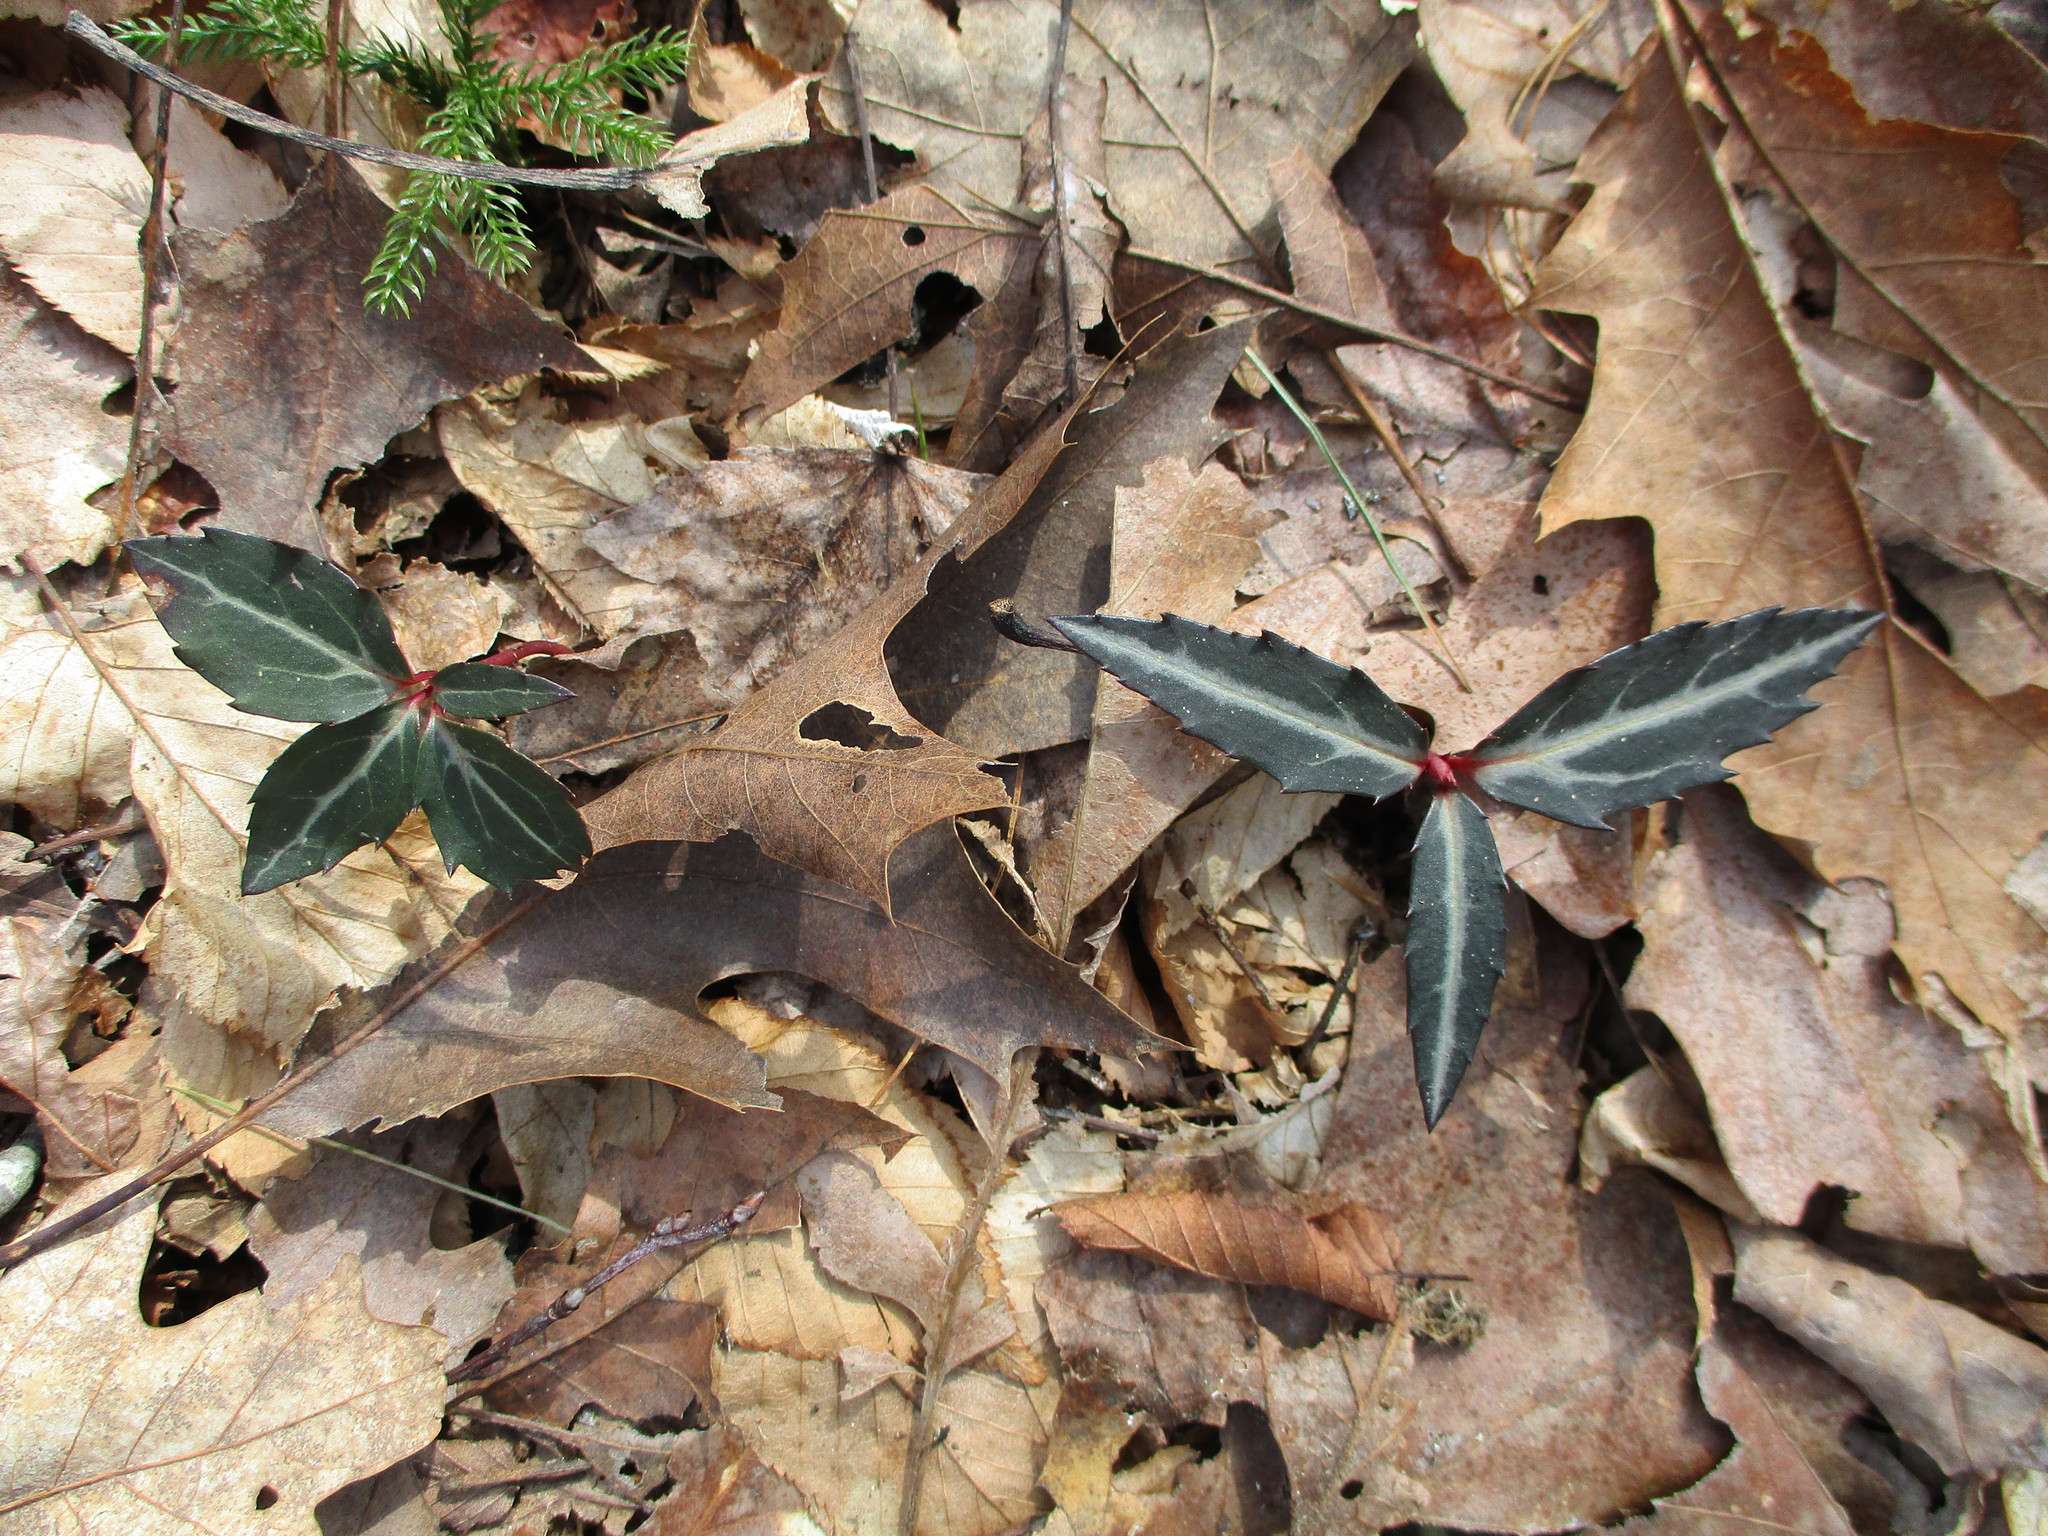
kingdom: Plantae
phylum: Tracheophyta
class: Magnoliopsida
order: Ericales
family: Ericaceae
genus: Chimaphila
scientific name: Chimaphila maculata
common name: Spotted pipsissewa
